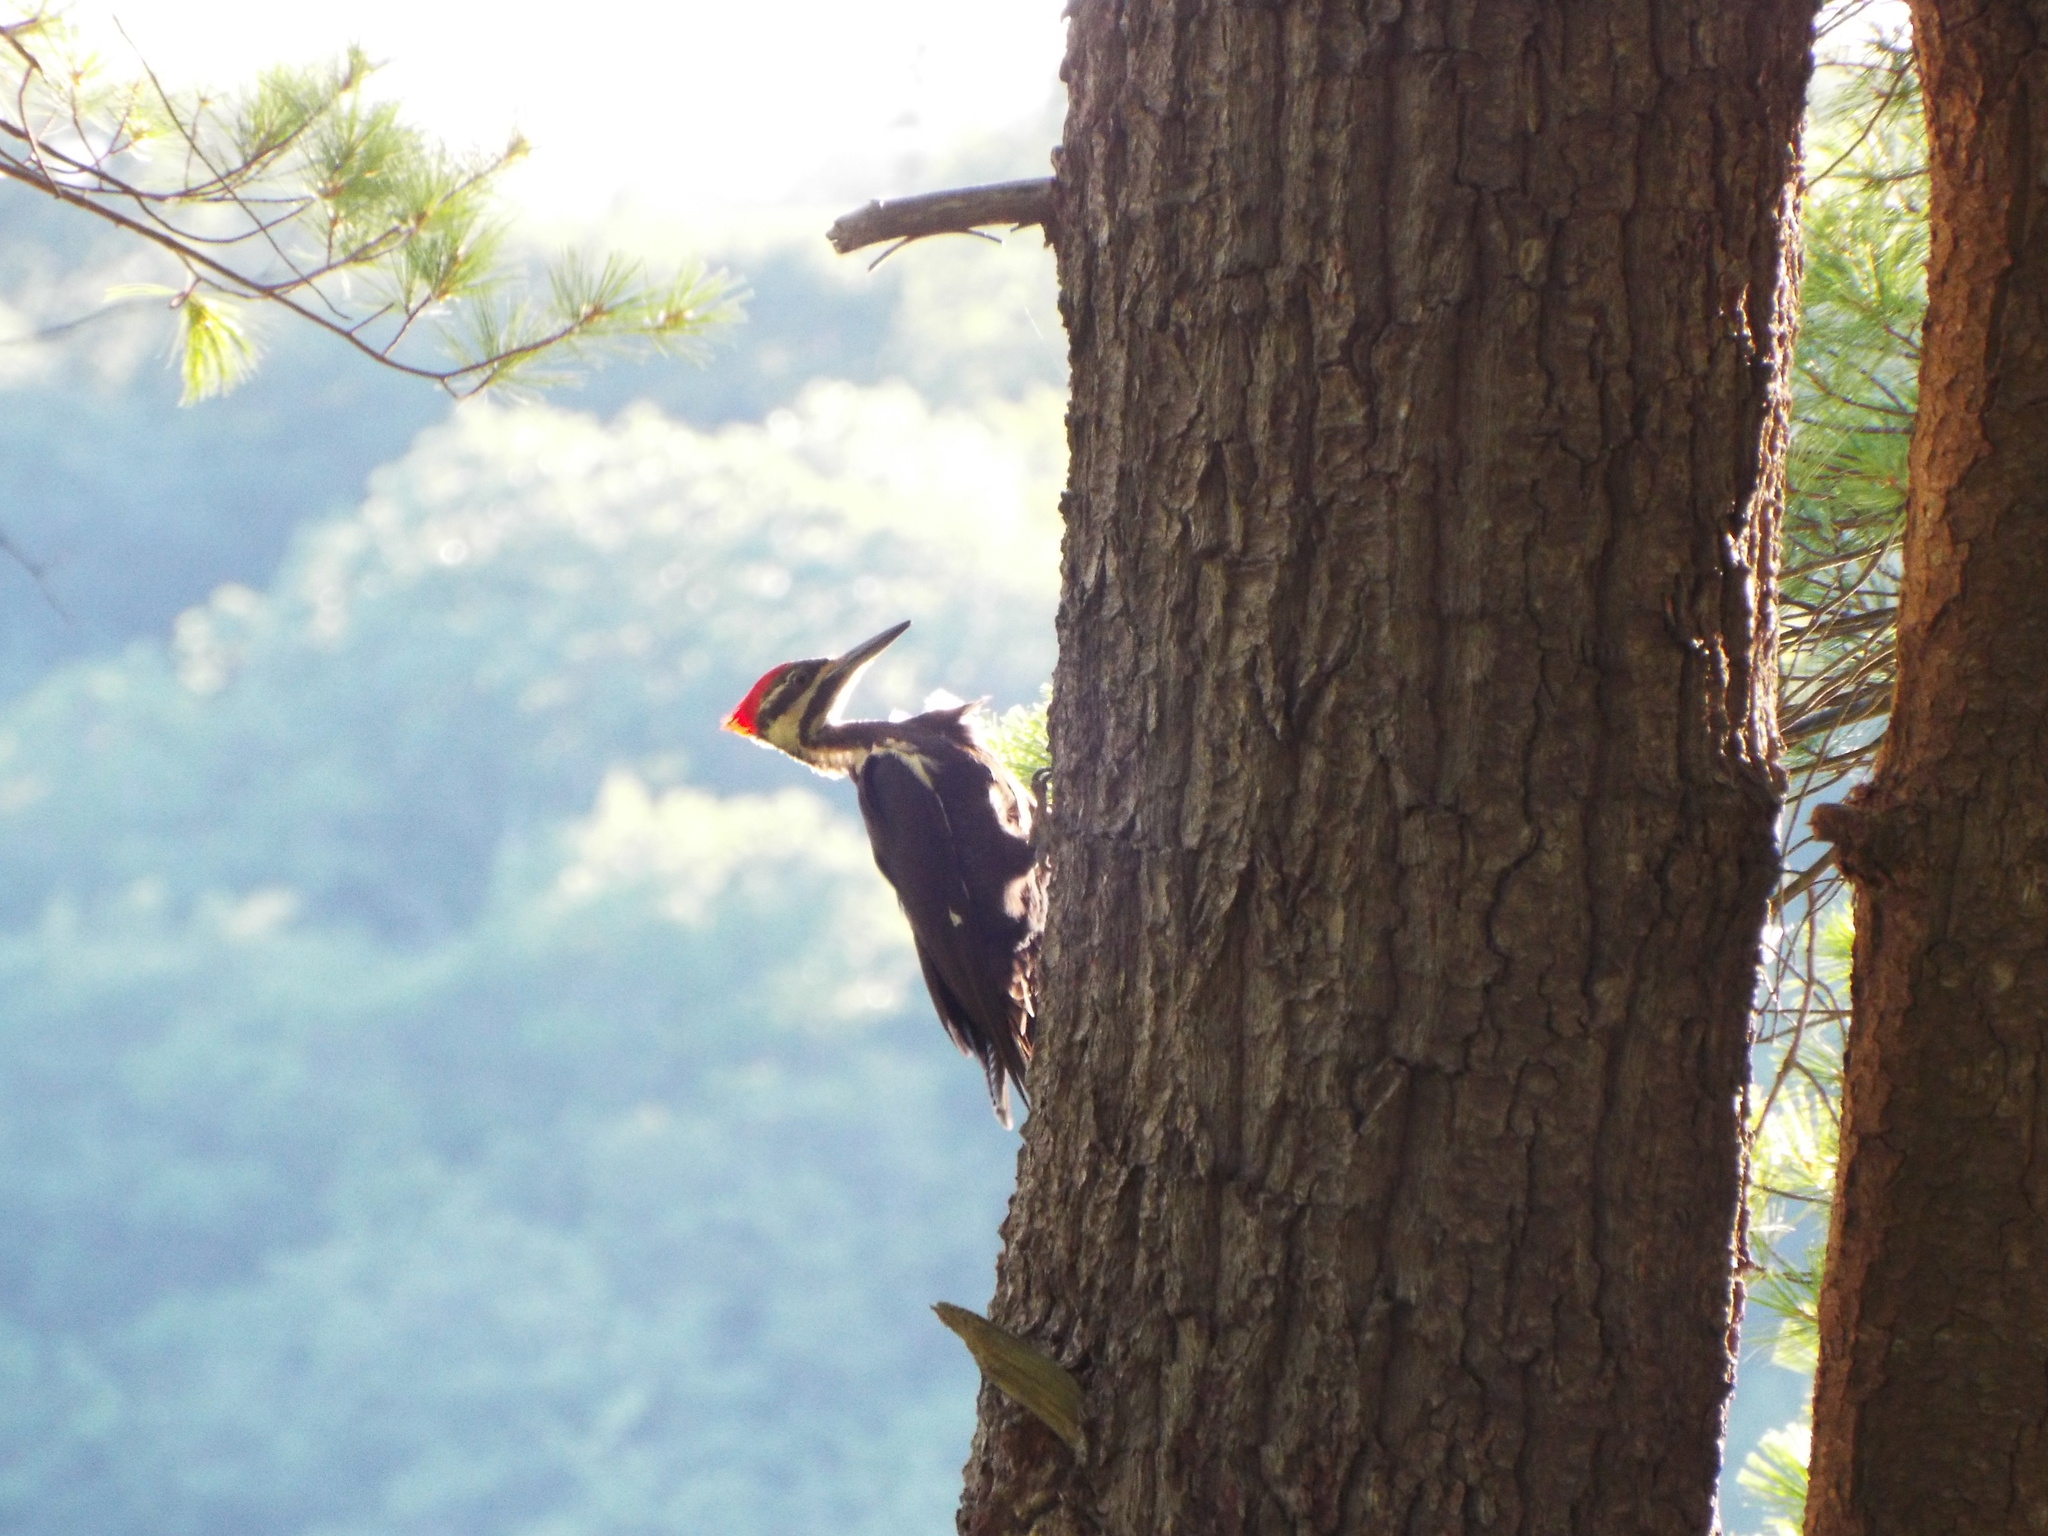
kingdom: Animalia
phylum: Chordata
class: Aves
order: Piciformes
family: Picidae
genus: Dryocopus
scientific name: Dryocopus pileatus
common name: Pileated woodpecker
